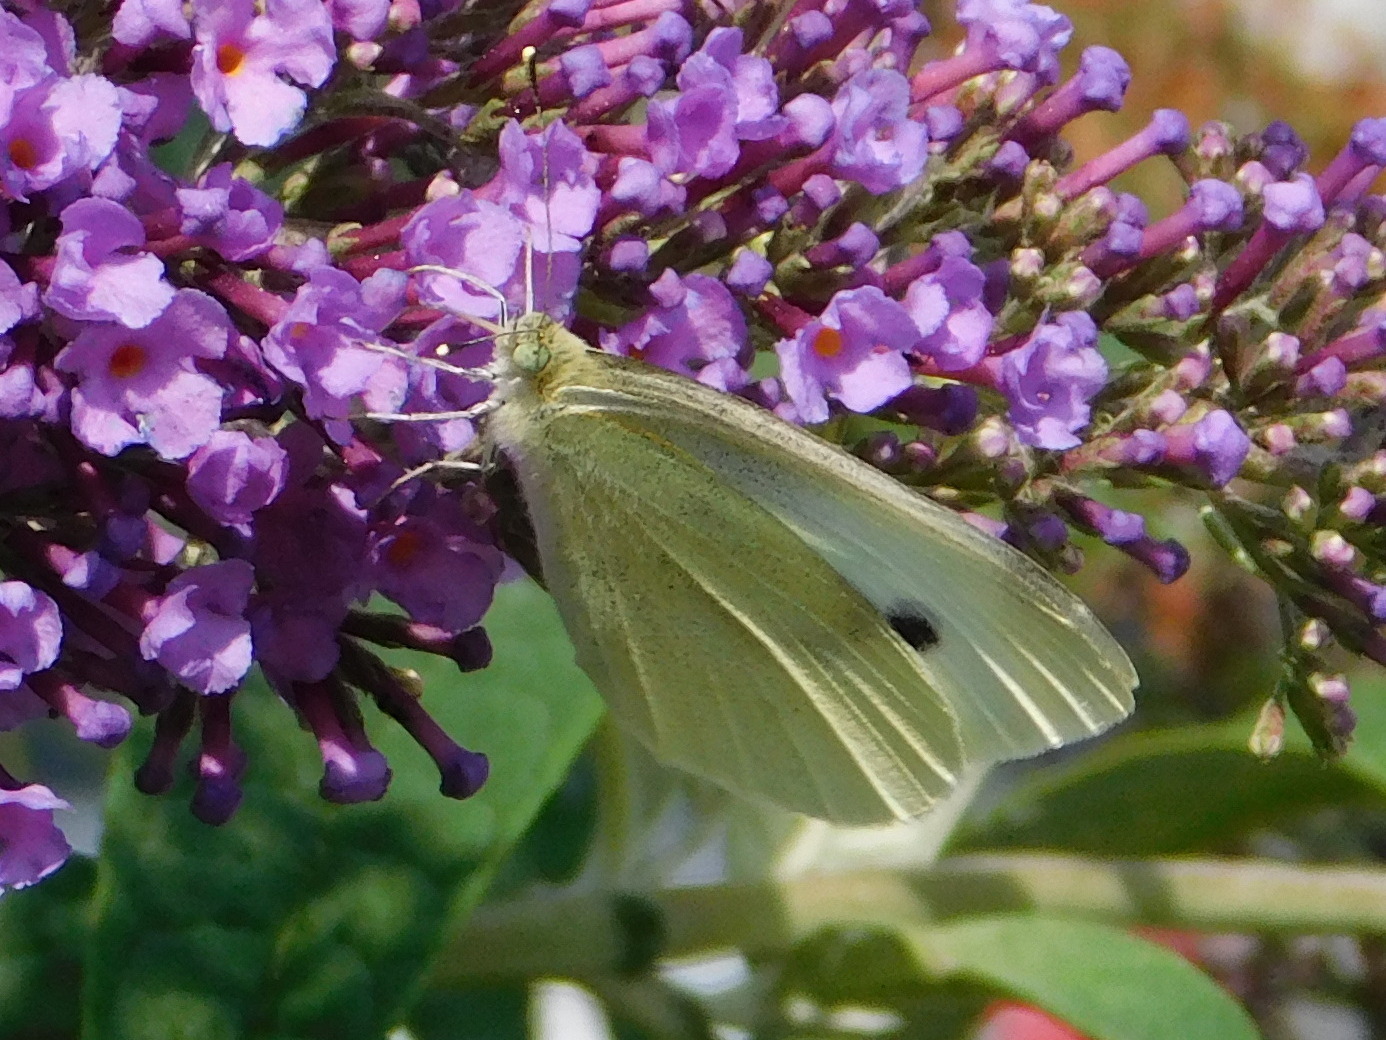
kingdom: Animalia
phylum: Arthropoda
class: Insecta
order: Lepidoptera
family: Pieridae
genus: Pieris
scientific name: Pieris rapae
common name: Small white
